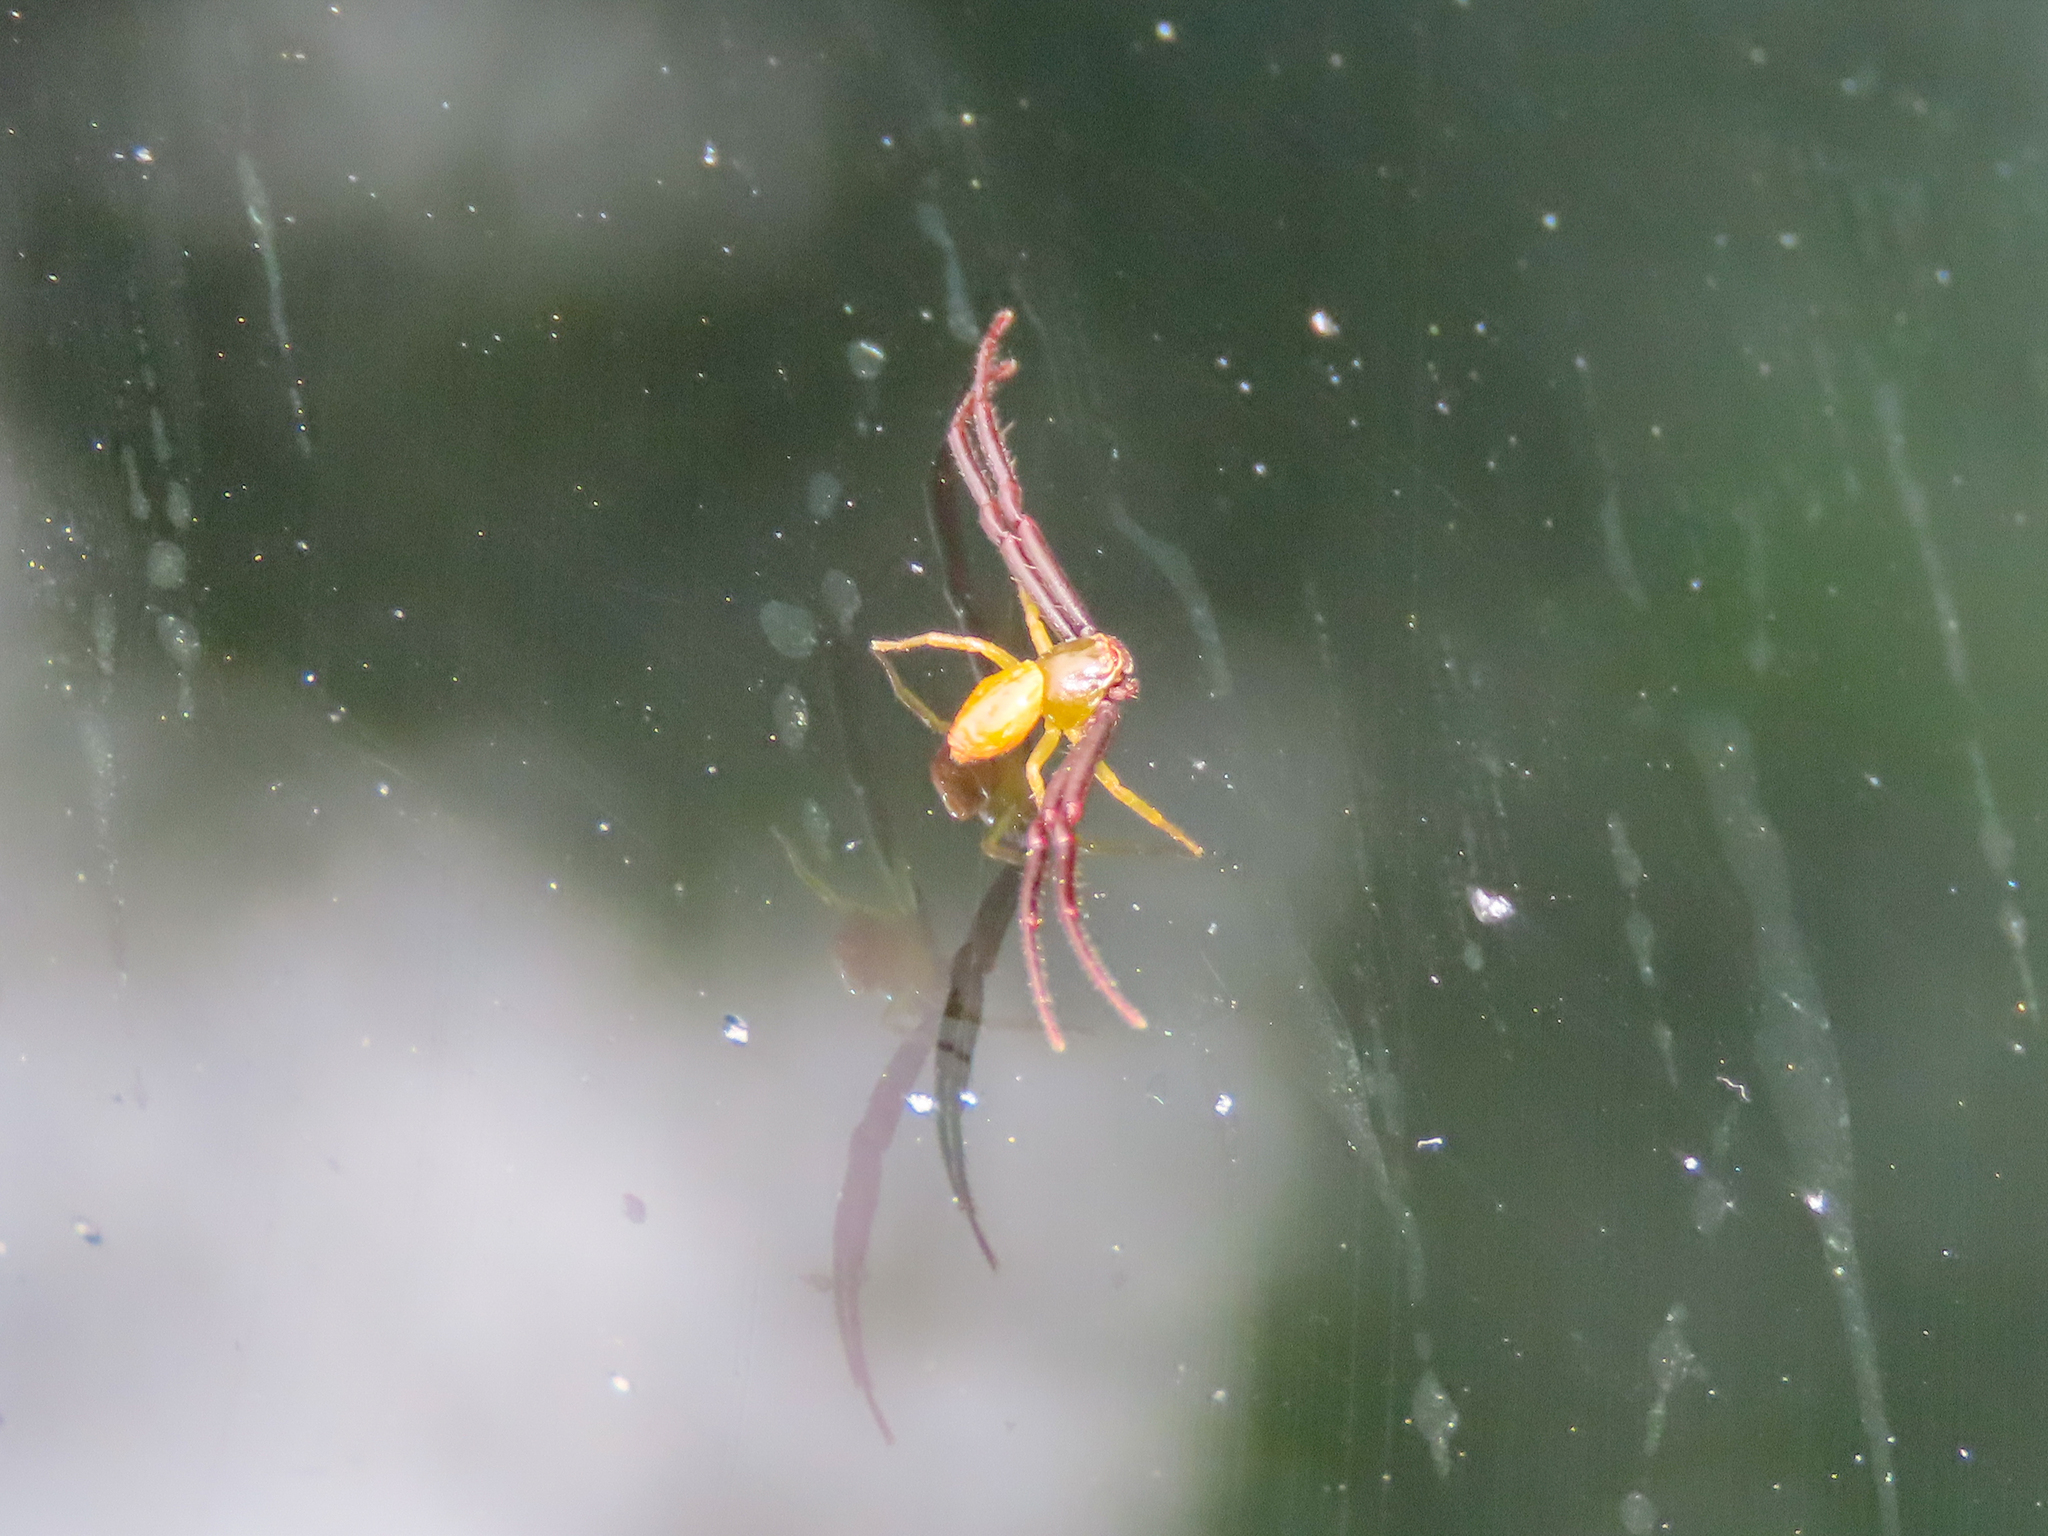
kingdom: Animalia
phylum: Arthropoda
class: Arachnida
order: Araneae
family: Thomisidae
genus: Misumenoides
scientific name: Misumenoides formosipes
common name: White-banded crab spider
